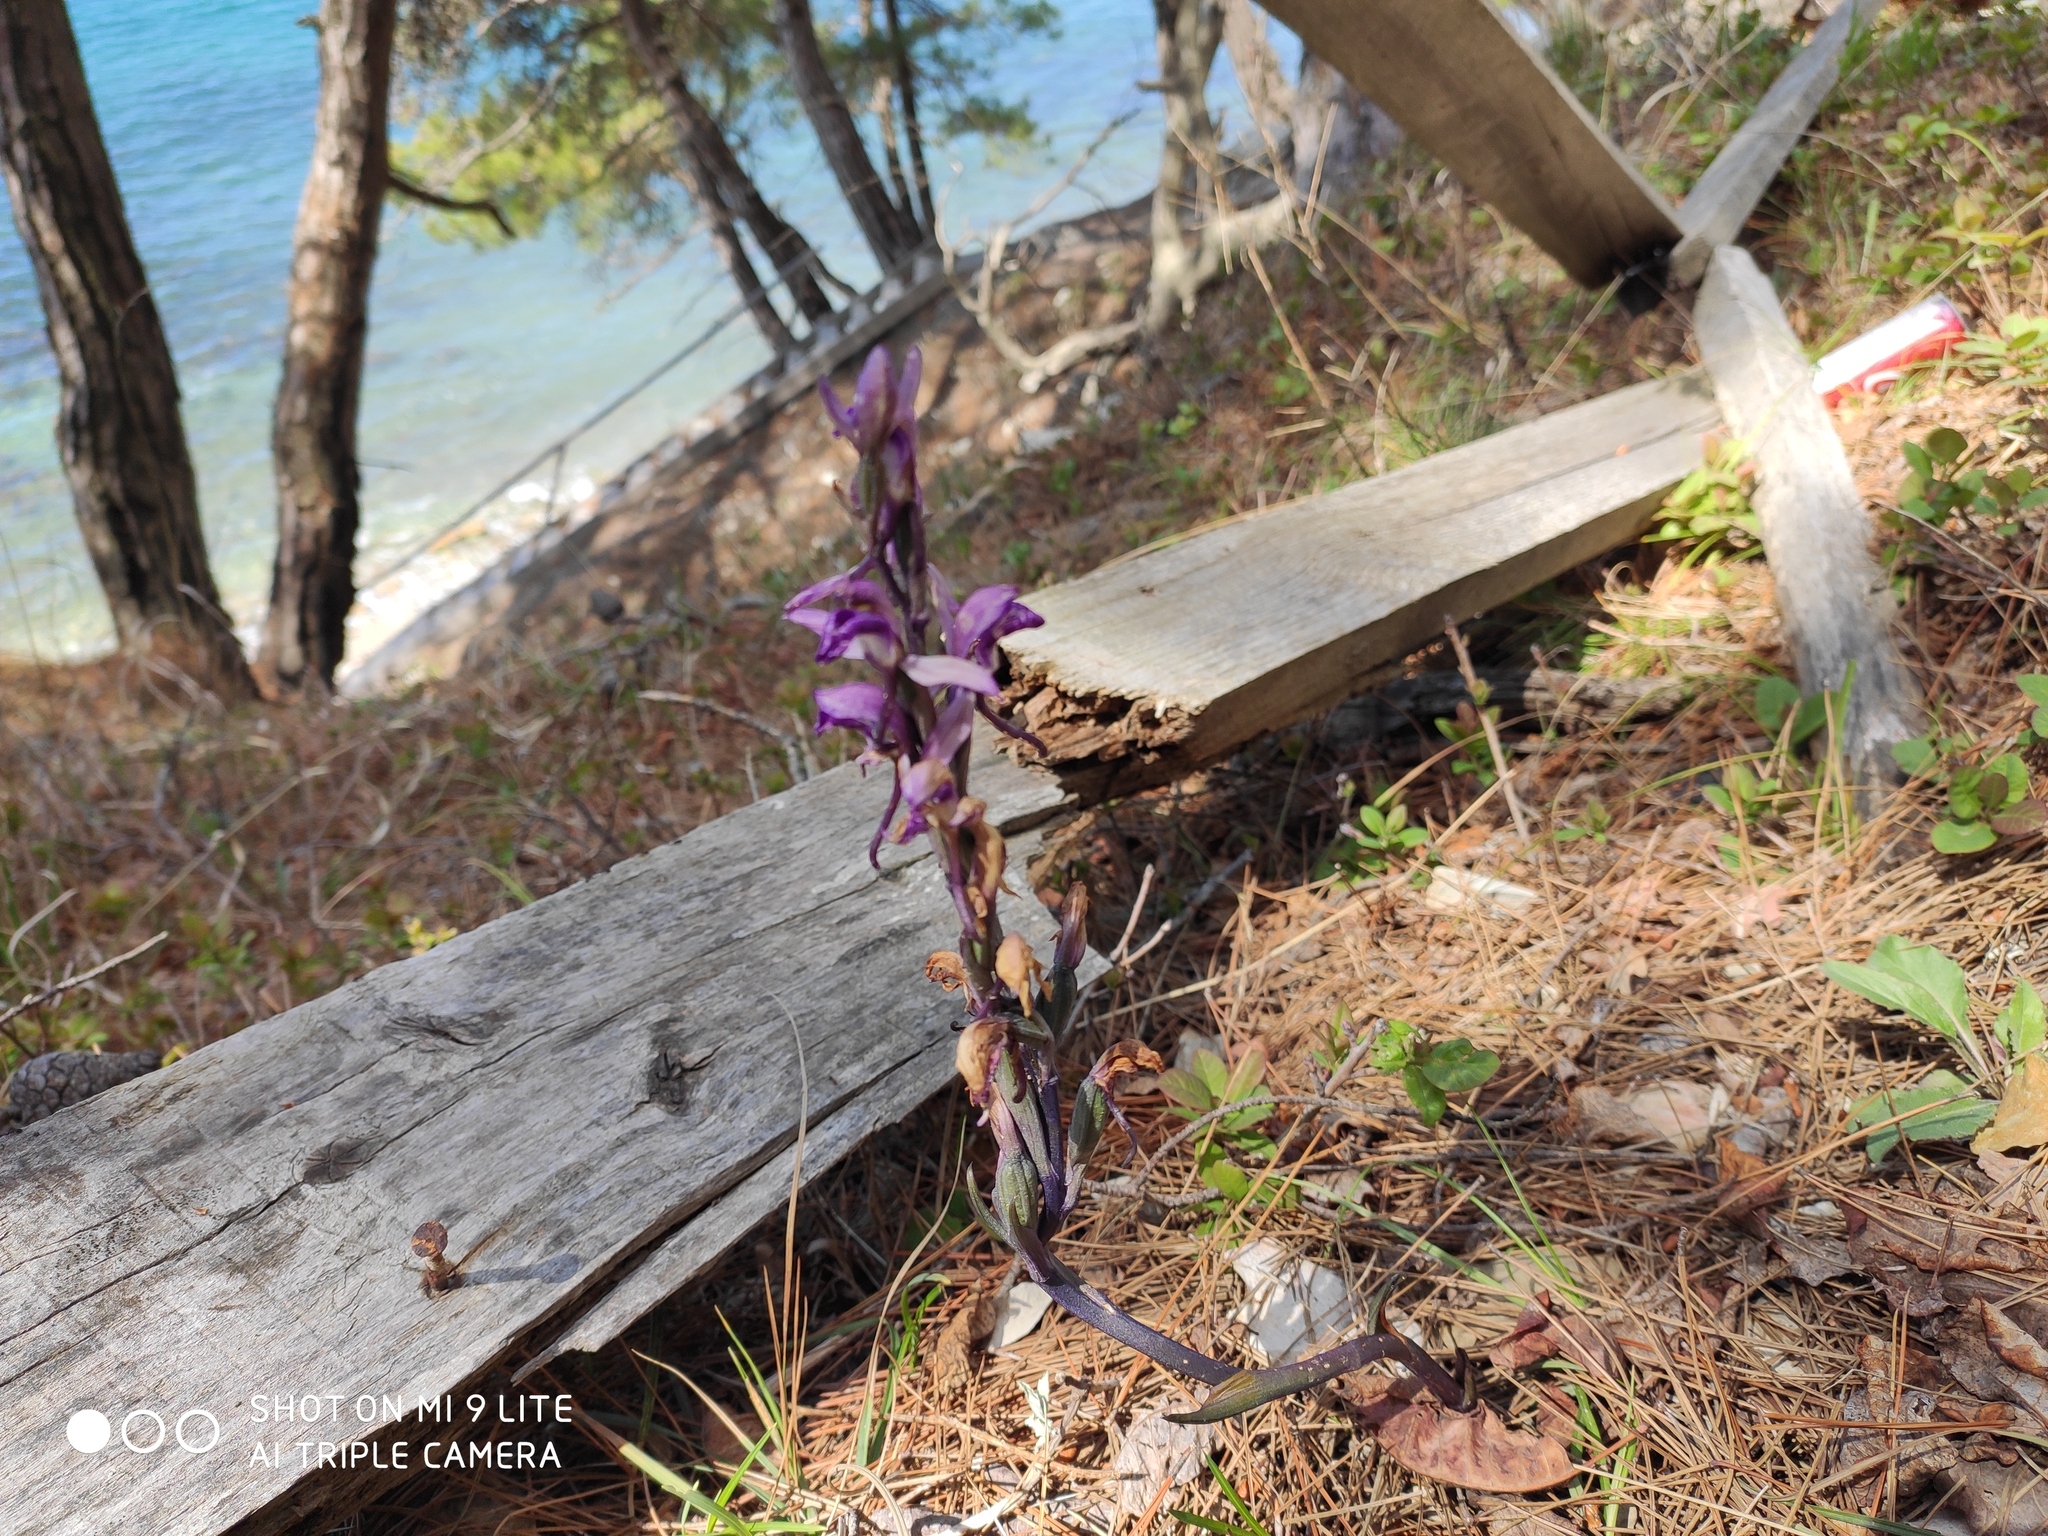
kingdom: Plantae
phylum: Tracheophyta
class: Liliopsida
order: Asparagales
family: Orchidaceae
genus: Limodorum
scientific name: Limodorum abortivum
